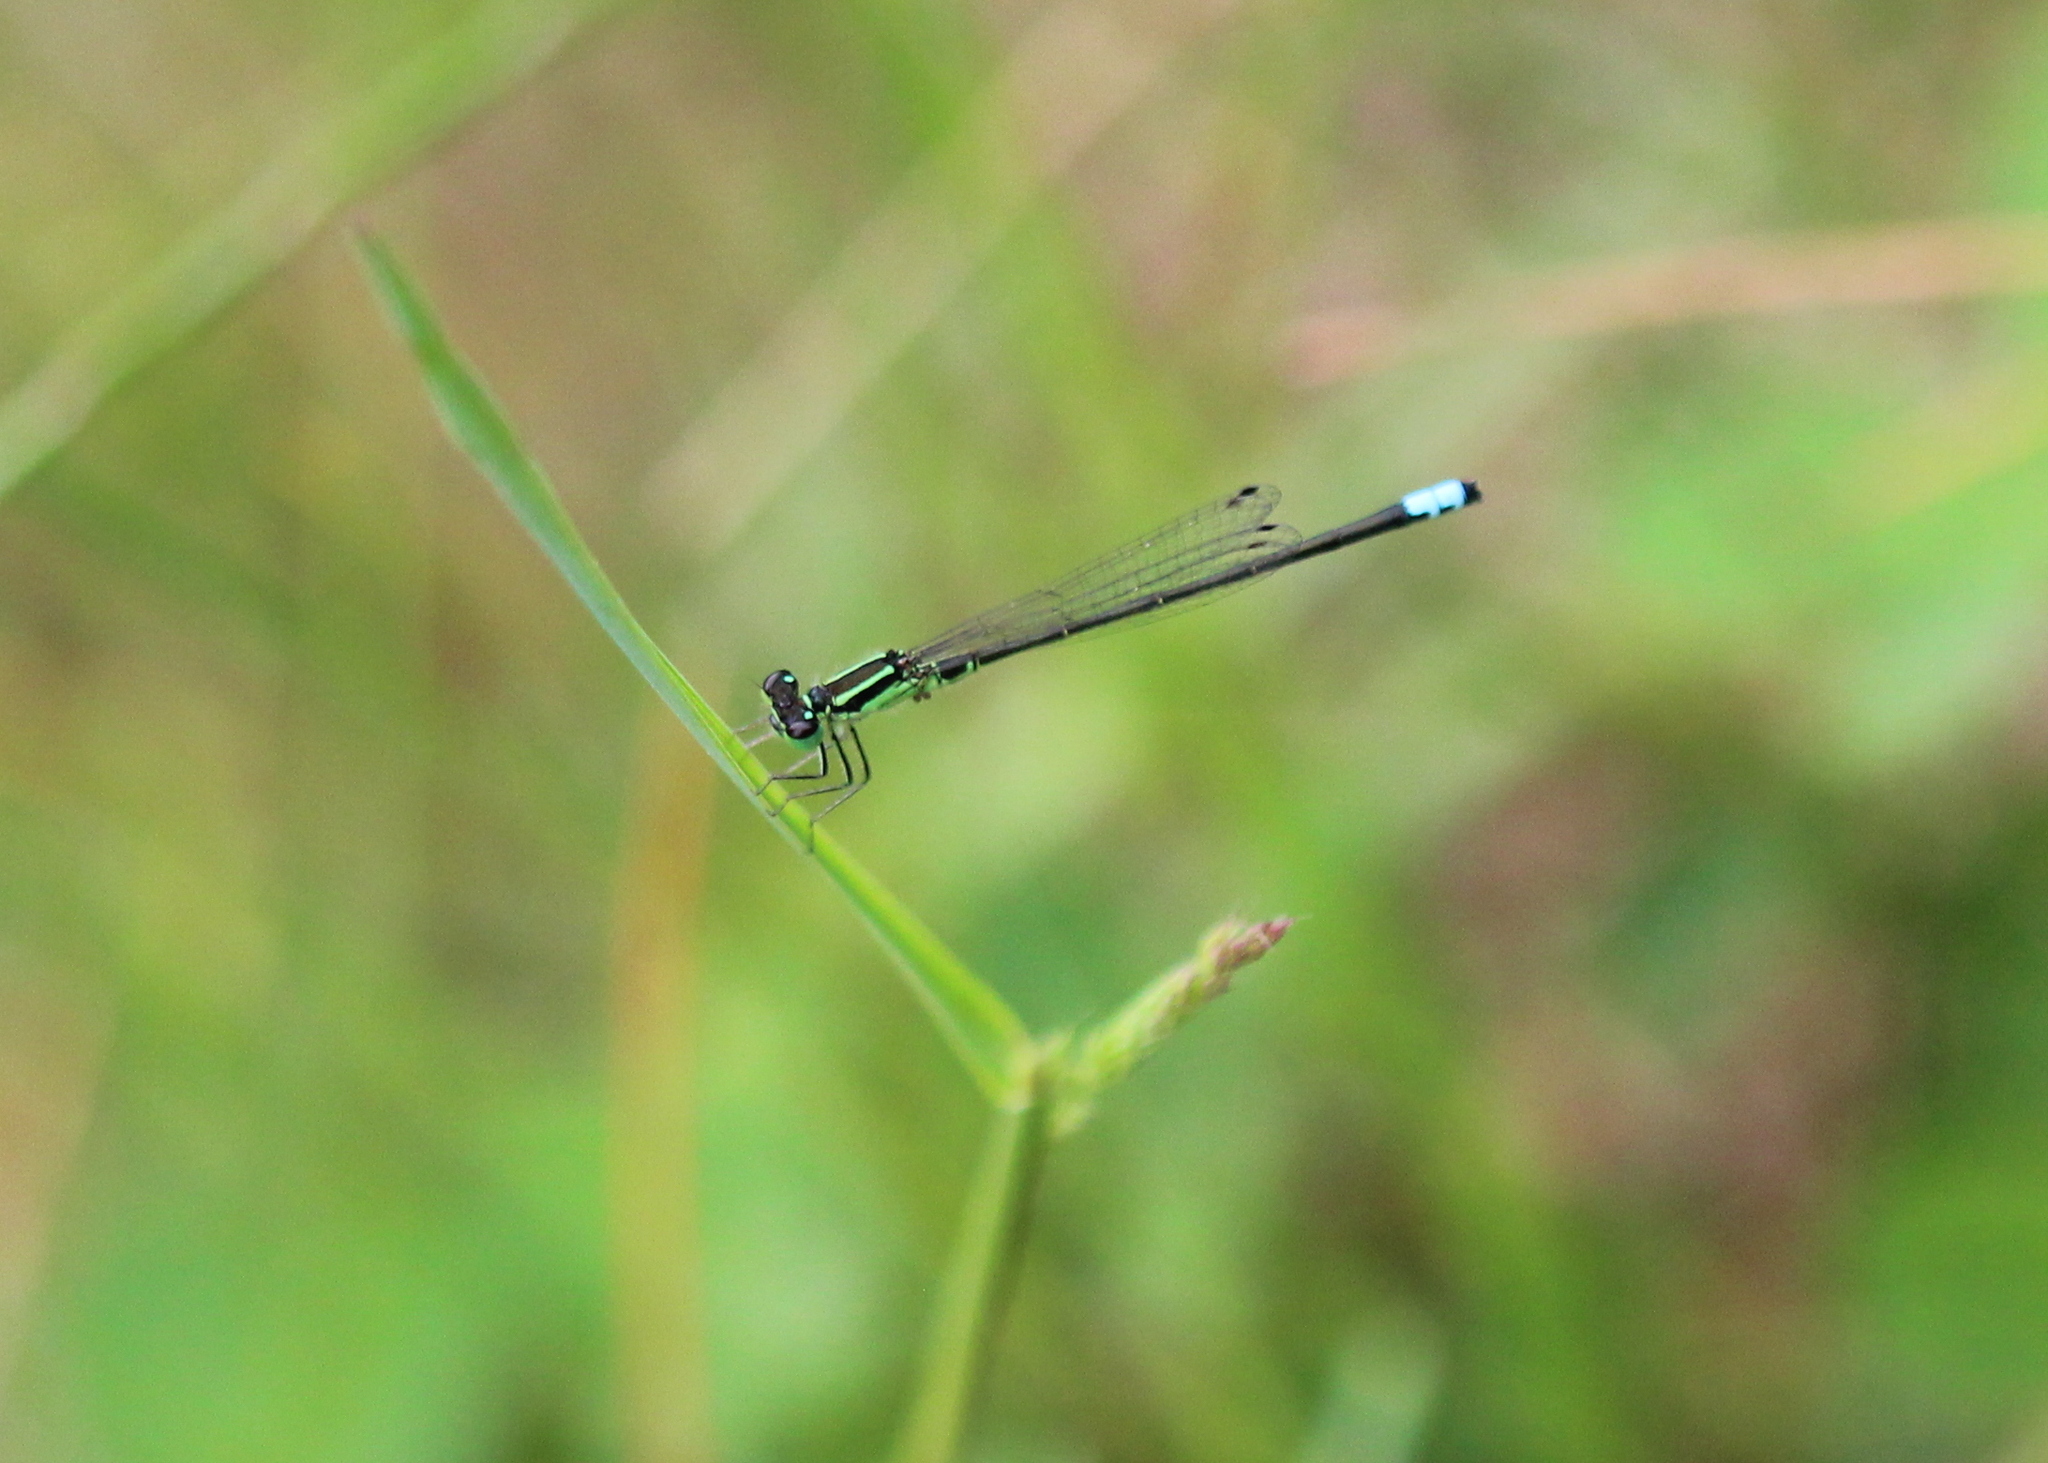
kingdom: Animalia
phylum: Arthropoda
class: Insecta
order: Odonata
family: Coenagrionidae
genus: Ischnura
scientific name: Ischnura verticalis
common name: Eastern forktail
